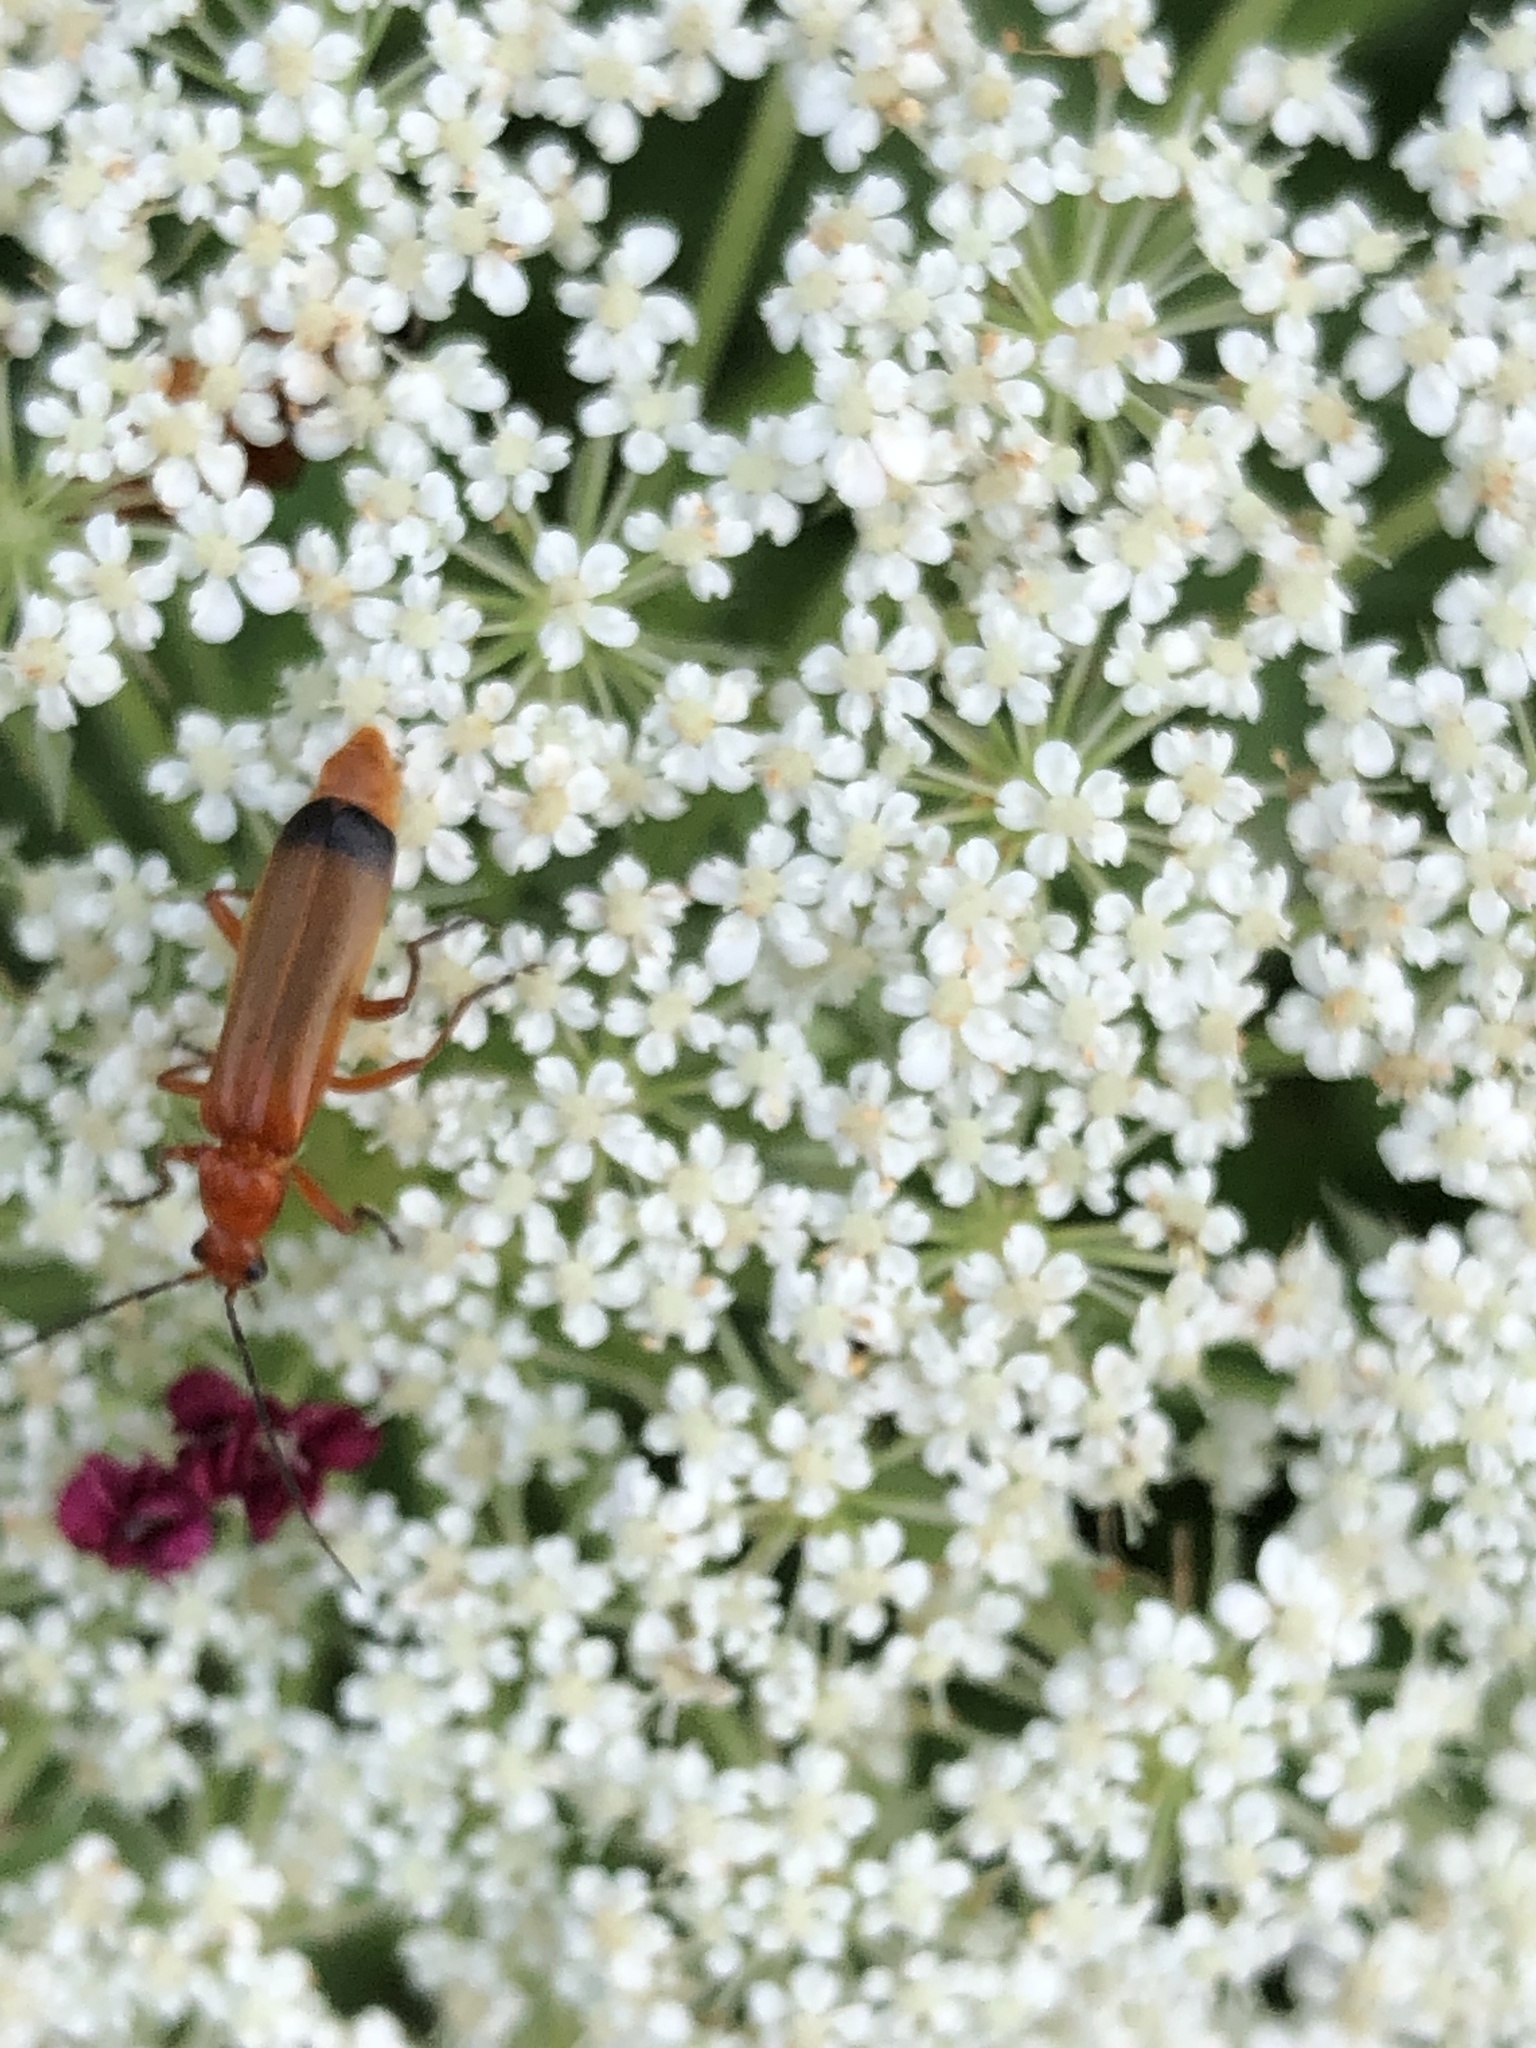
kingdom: Animalia
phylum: Arthropoda
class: Insecta
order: Coleoptera
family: Cantharidae
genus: Rhagonycha
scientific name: Rhagonycha fulva
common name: Common red soldier beetle
